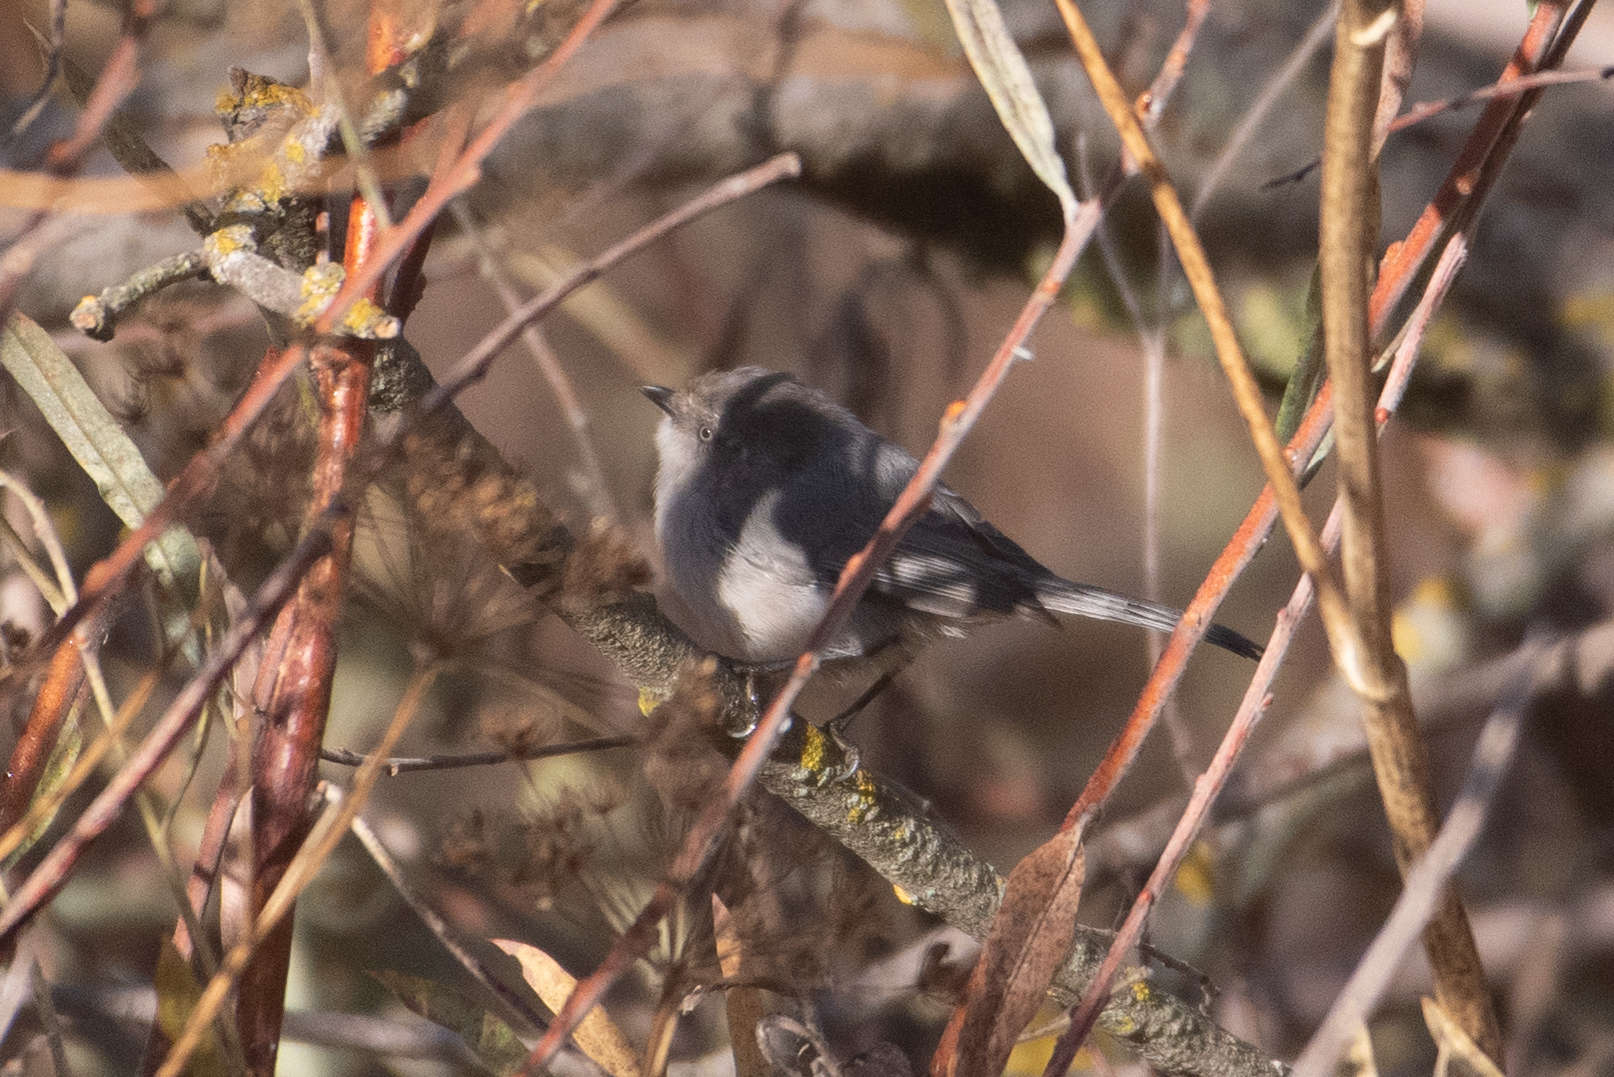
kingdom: Animalia
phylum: Chordata
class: Aves
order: Passeriformes
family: Aegithalidae
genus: Psaltriparus
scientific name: Psaltriparus minimus
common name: American bushtit
